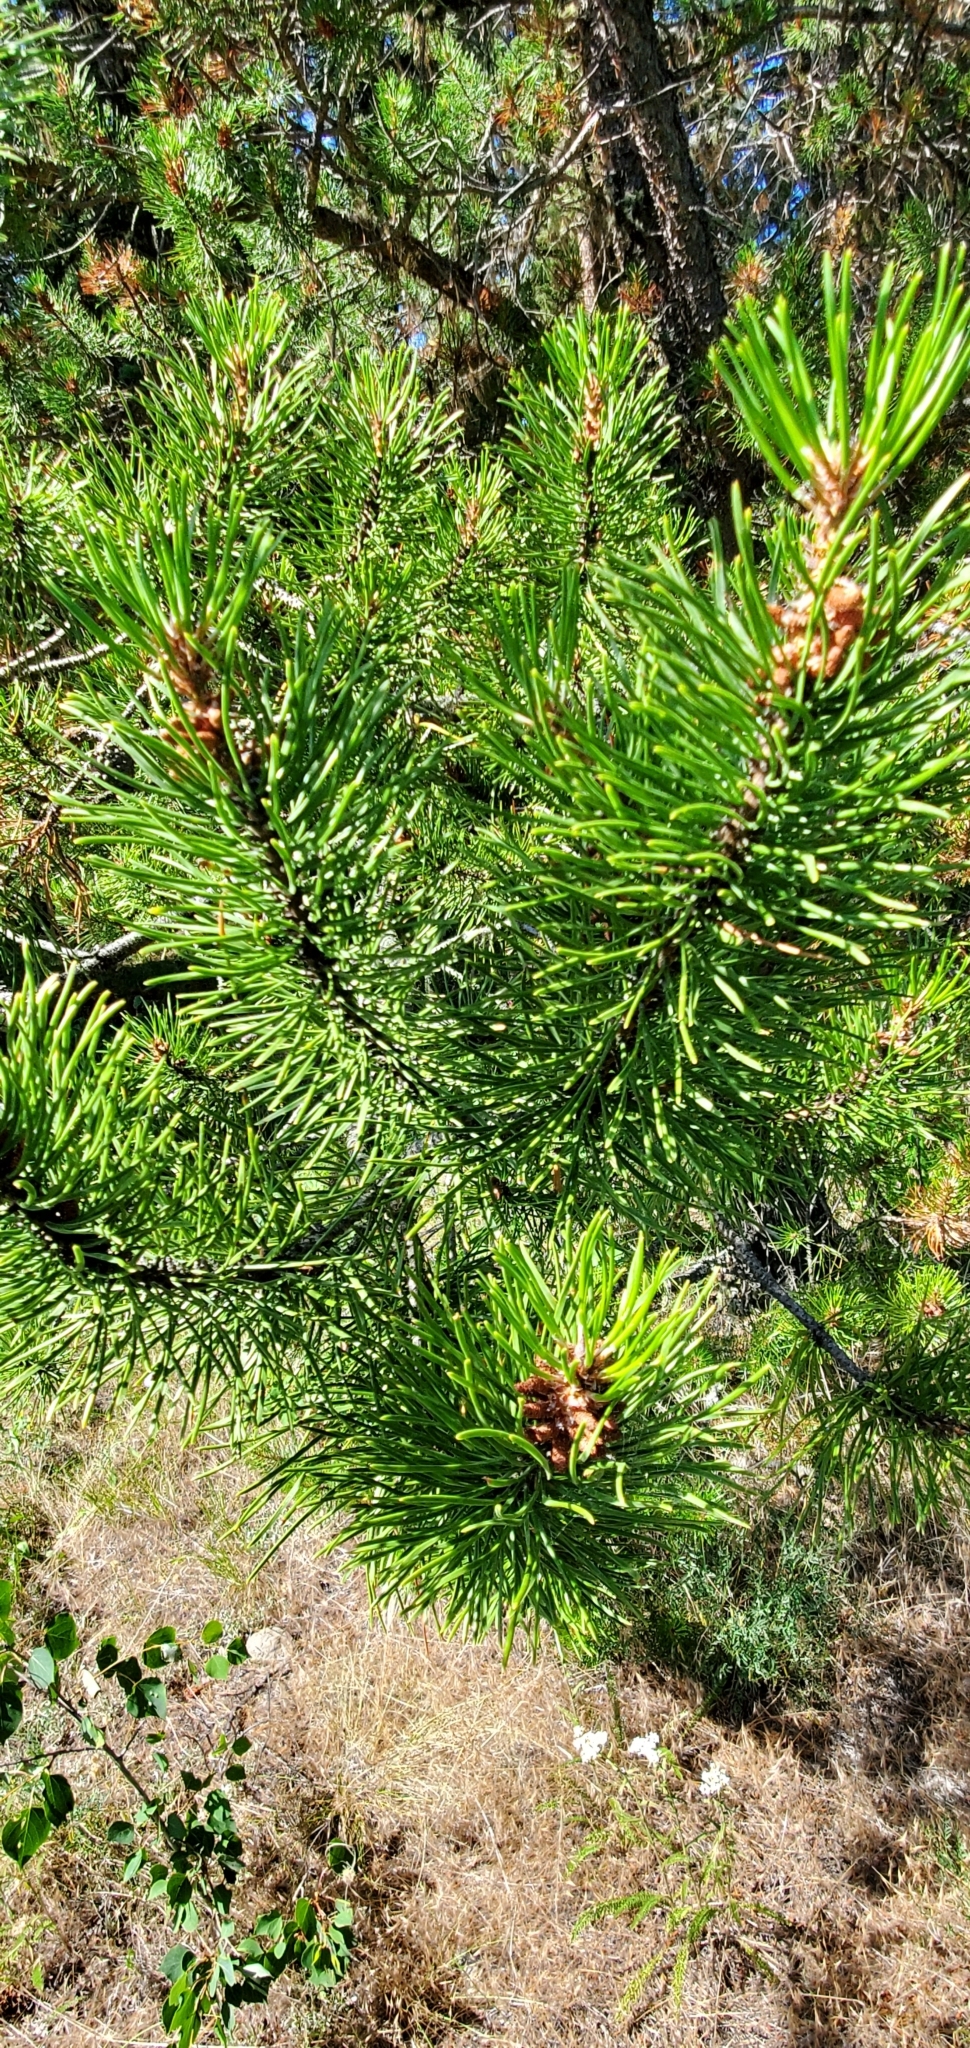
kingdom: Plantae
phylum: Tracheophyta
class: Pinopsida
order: Pinales
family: Pinaceae
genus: Pinus
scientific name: Pinus contorta
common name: Lodgepole pine
